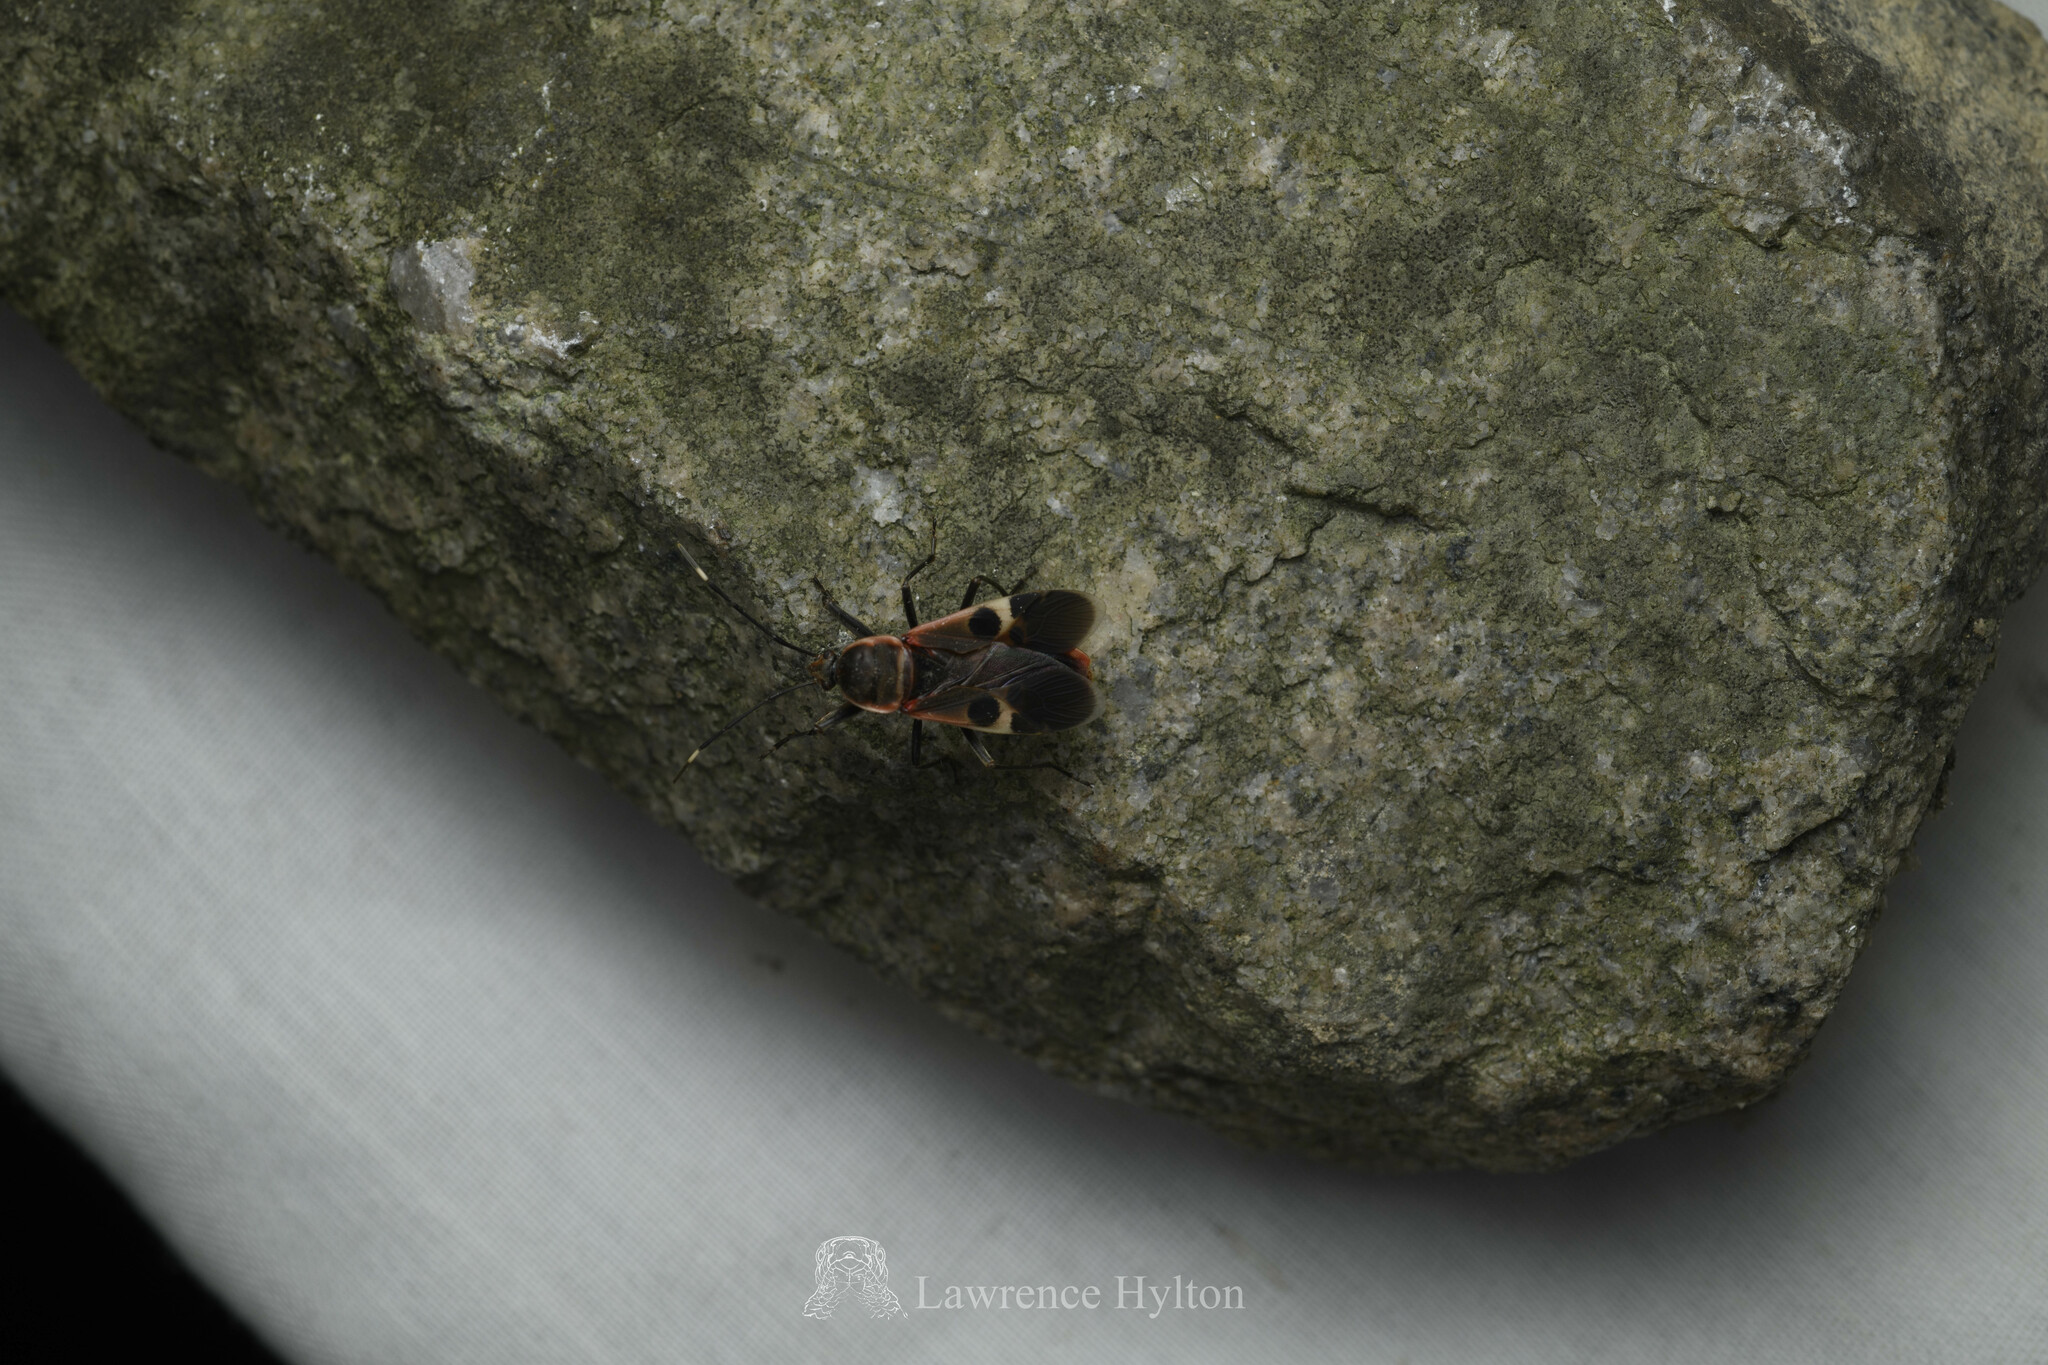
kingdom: Animalia
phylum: Arthropoda
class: Insecta
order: Hemiptera
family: Largidae
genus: Physopelta
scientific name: Physopelta gutta
